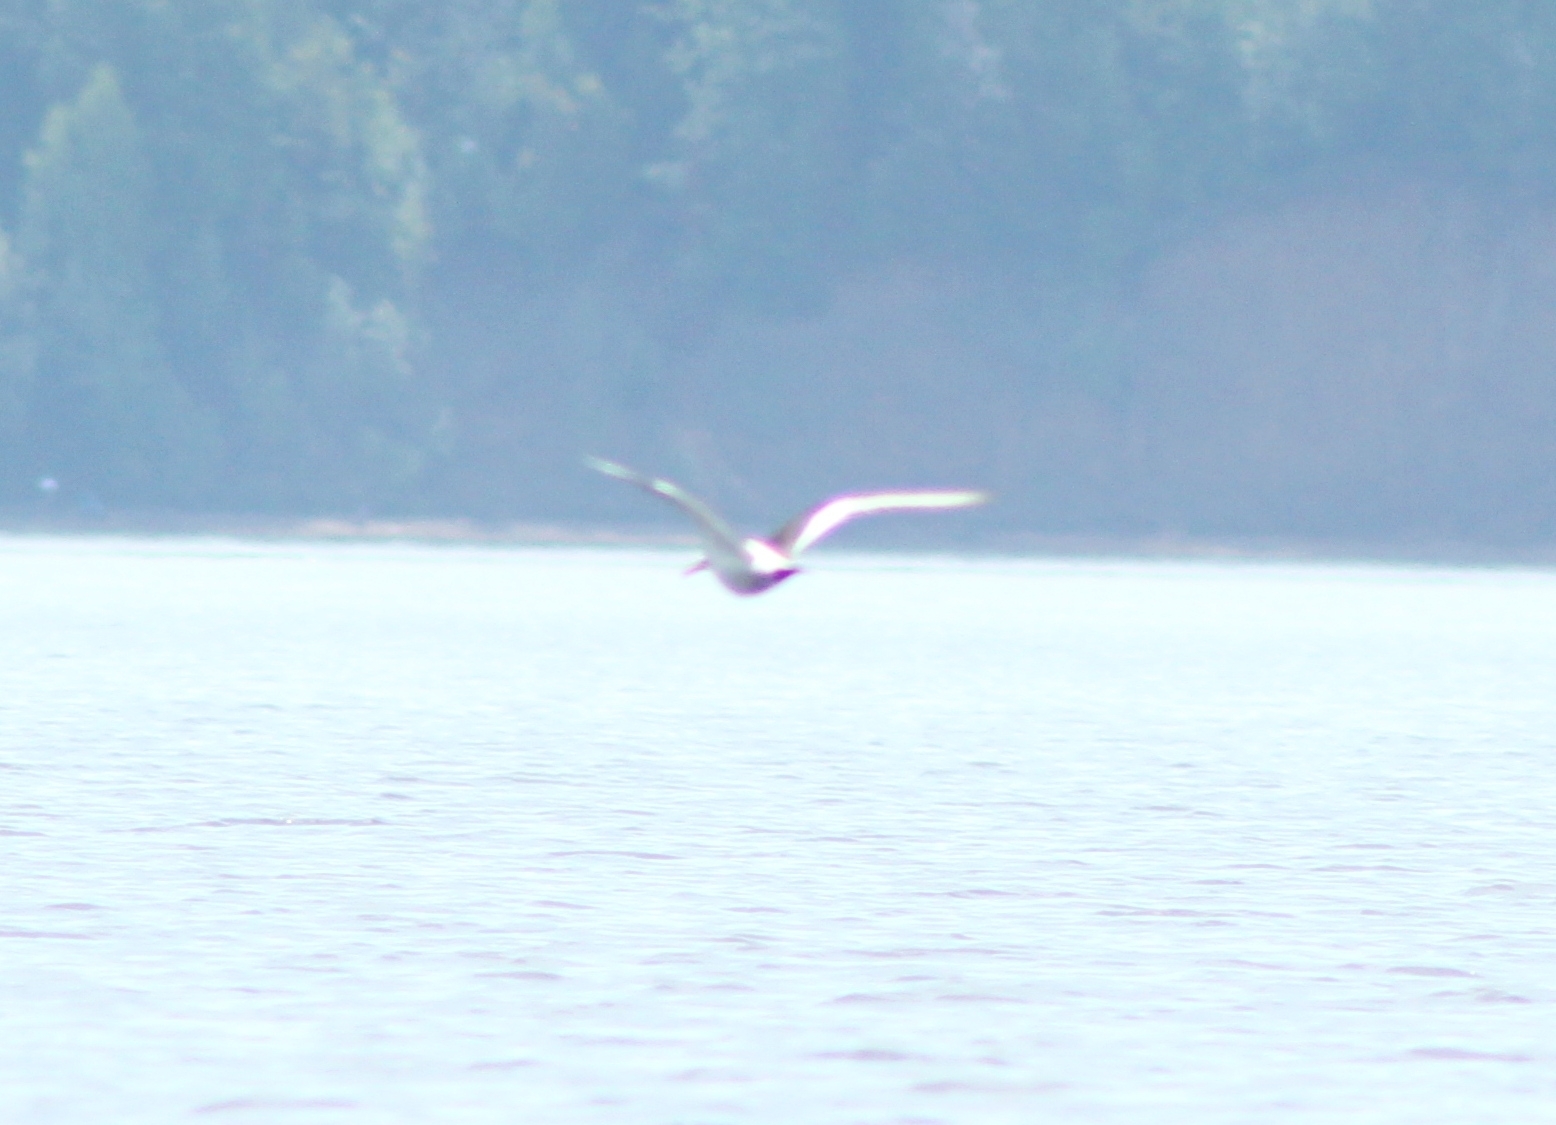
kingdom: Animalia
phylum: Chordata
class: Aves
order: Charadriiformes
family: Haematopodidae
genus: Haematopus
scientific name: Haematopus ostralegus
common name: Eurasian oystercatcher
